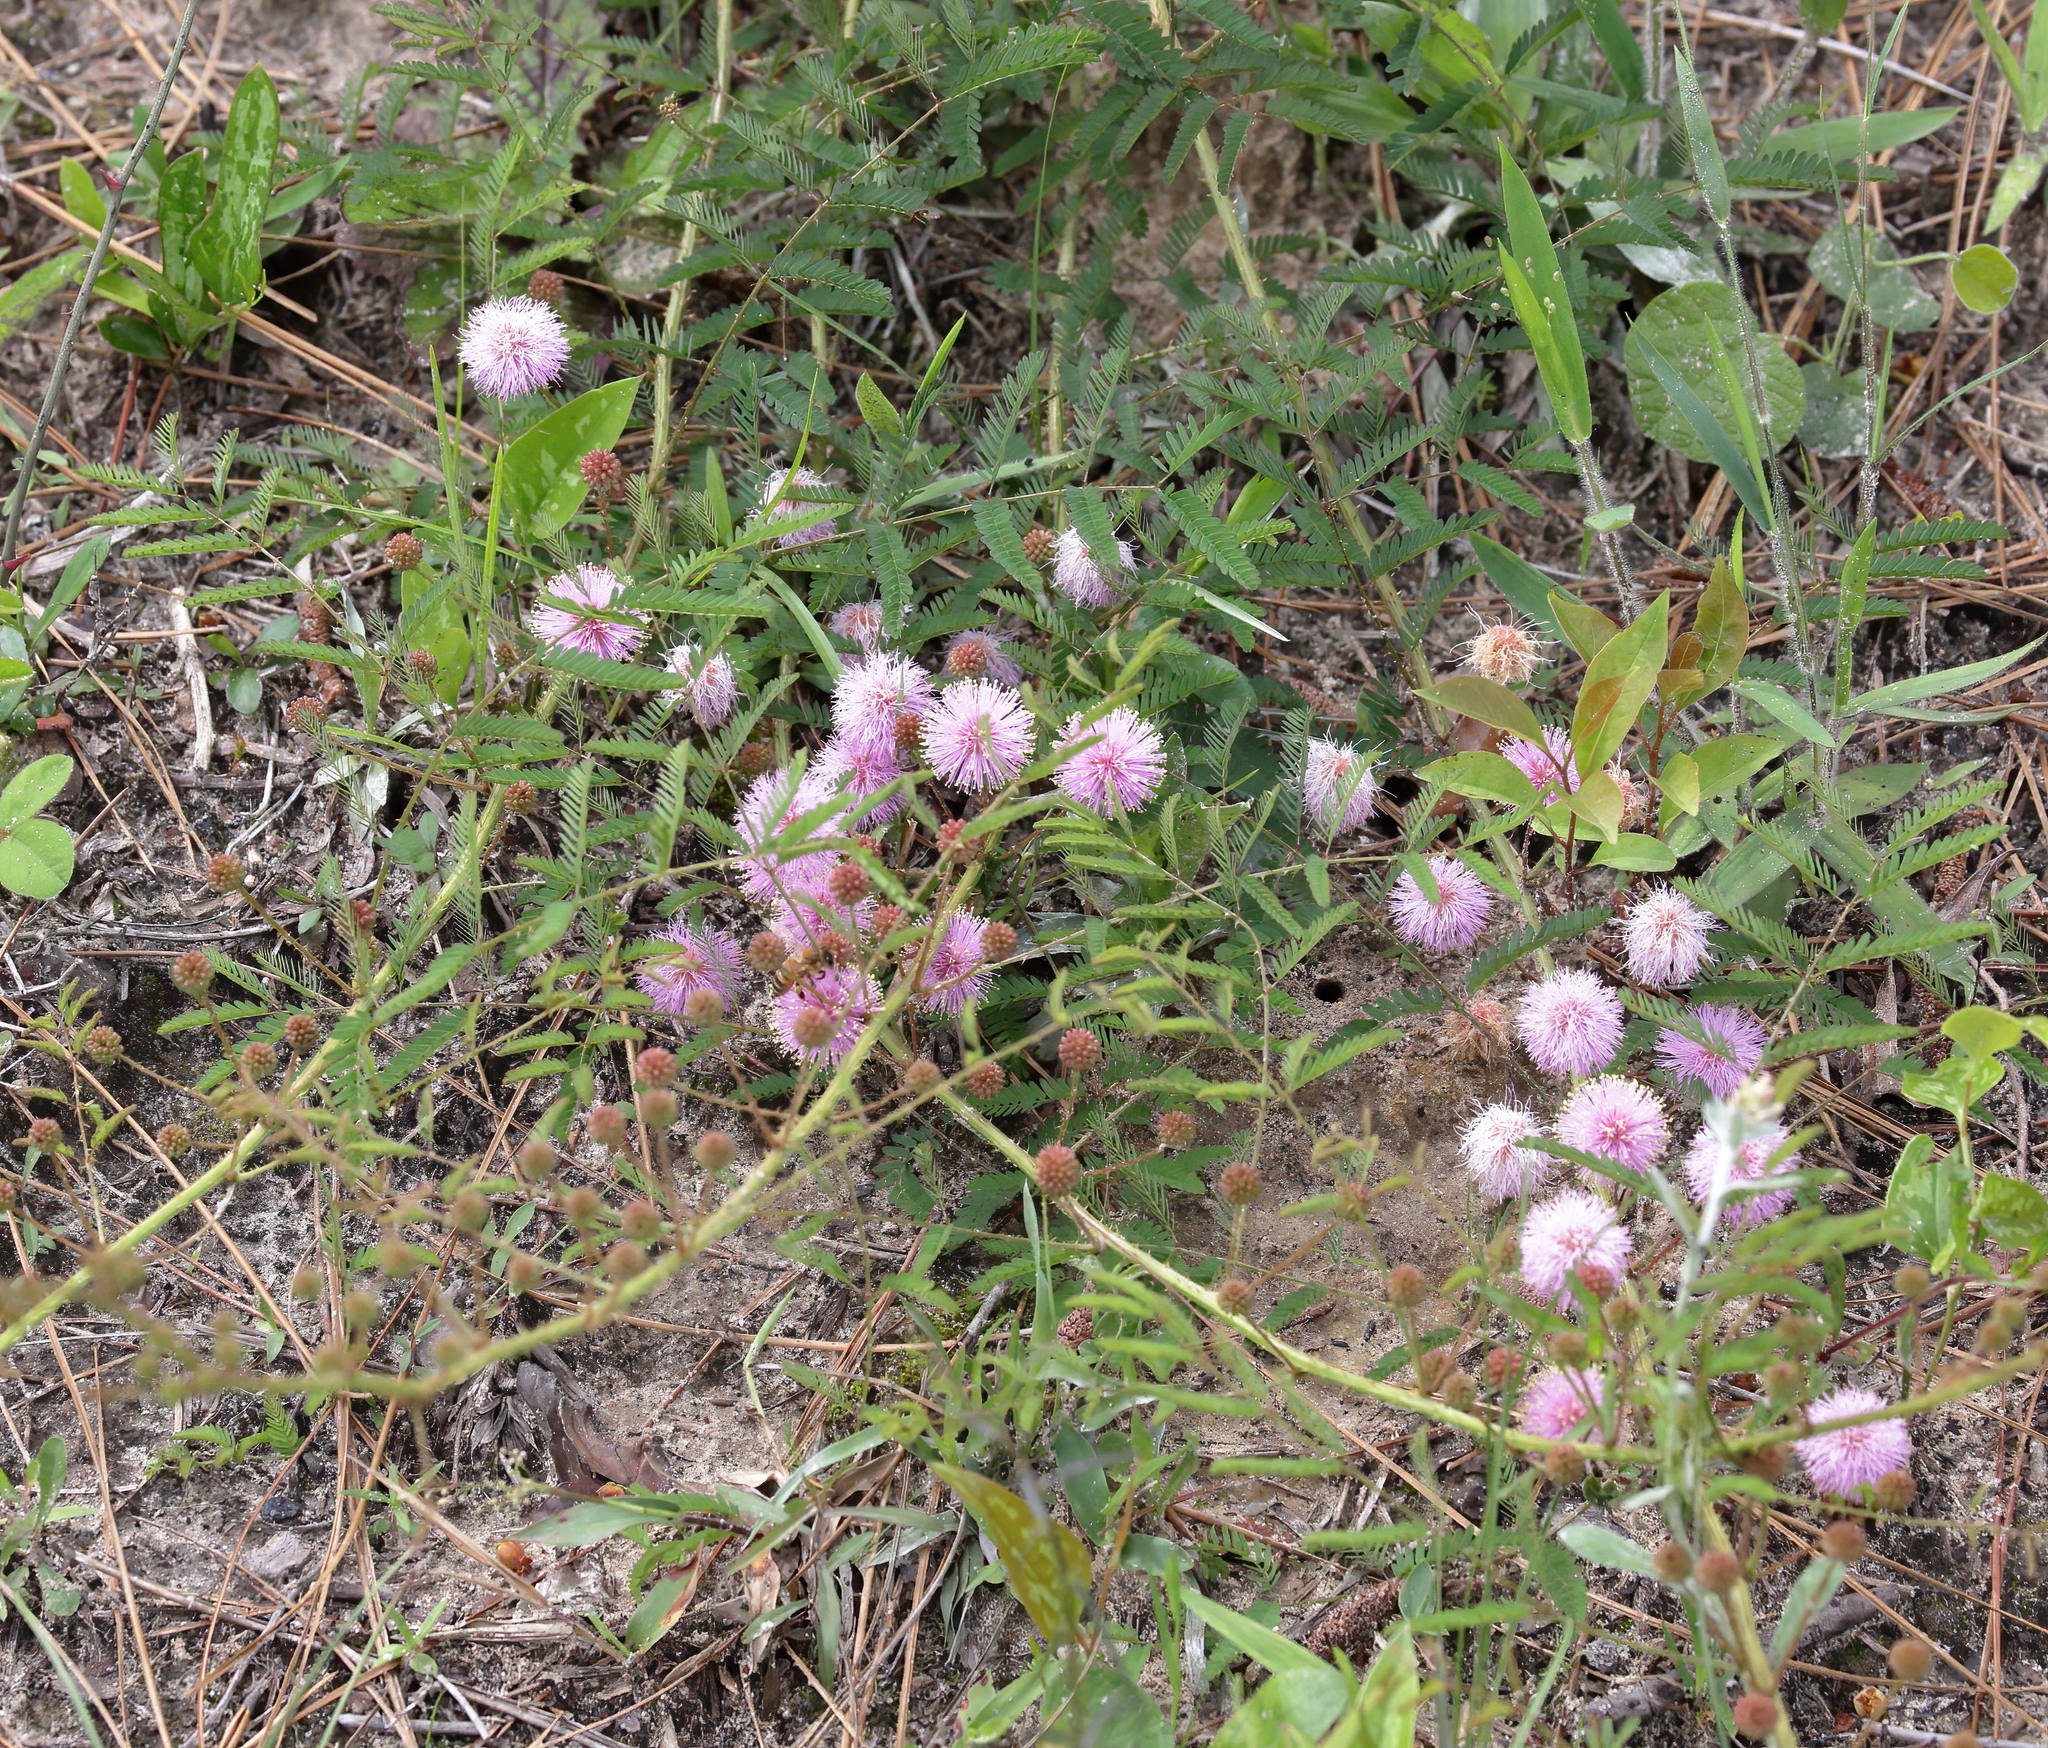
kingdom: Plantae
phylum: Tracheophyta
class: Magnoliopsida
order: Fabales
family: Fabaceae
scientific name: Fabaceae
